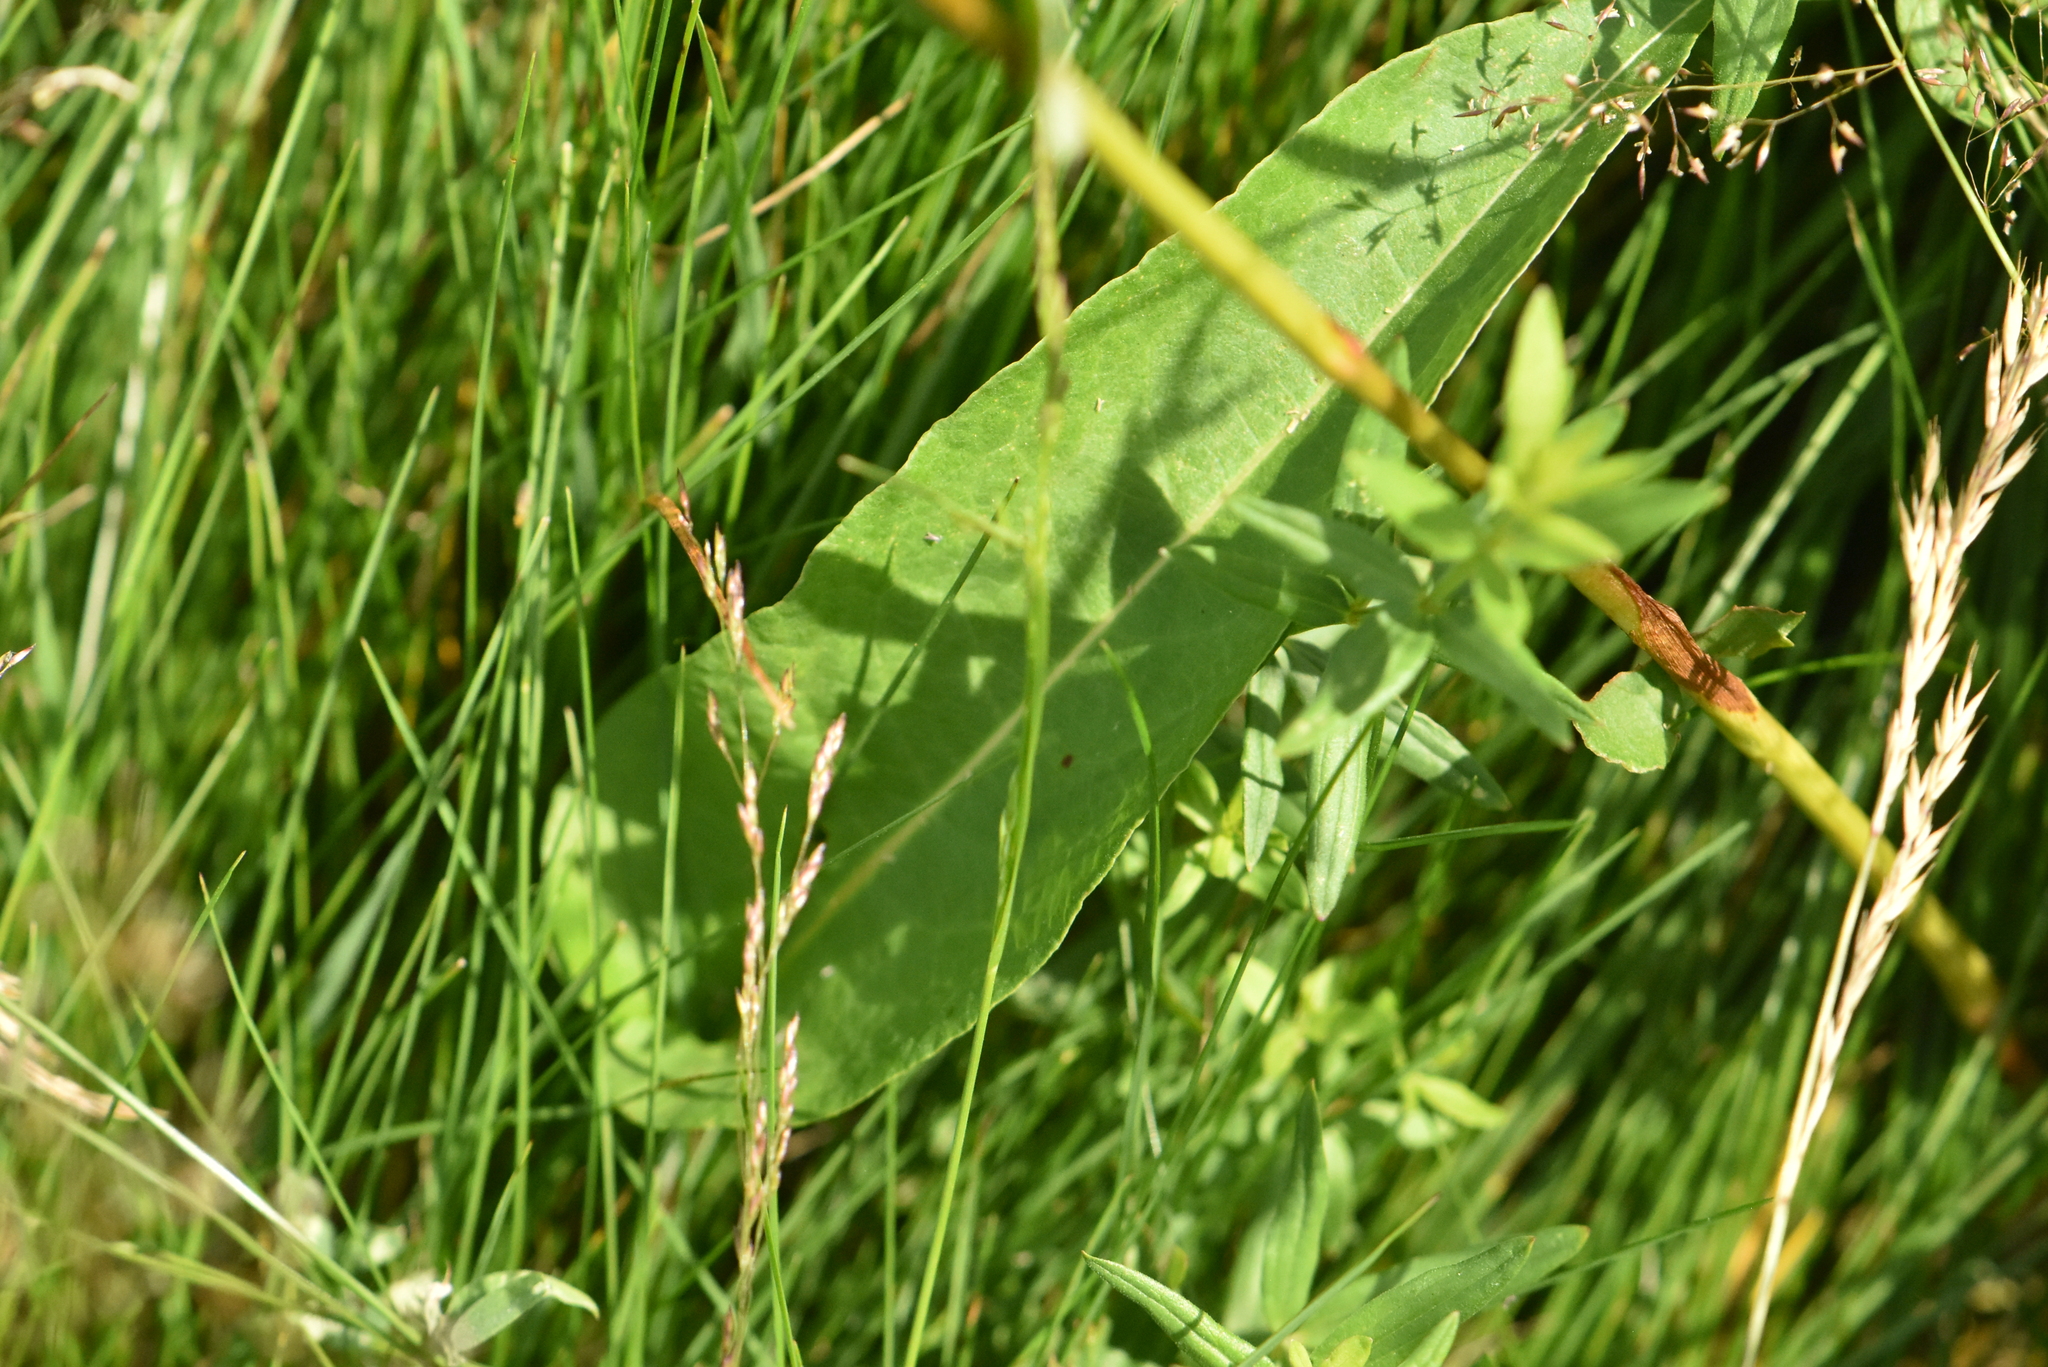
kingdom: Plantae
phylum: Tracheophyta
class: Magnoliopsida
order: Caryophyllales
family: Polygonaceae
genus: Bistorta
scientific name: Bistorta officinalis
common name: Common bistort
